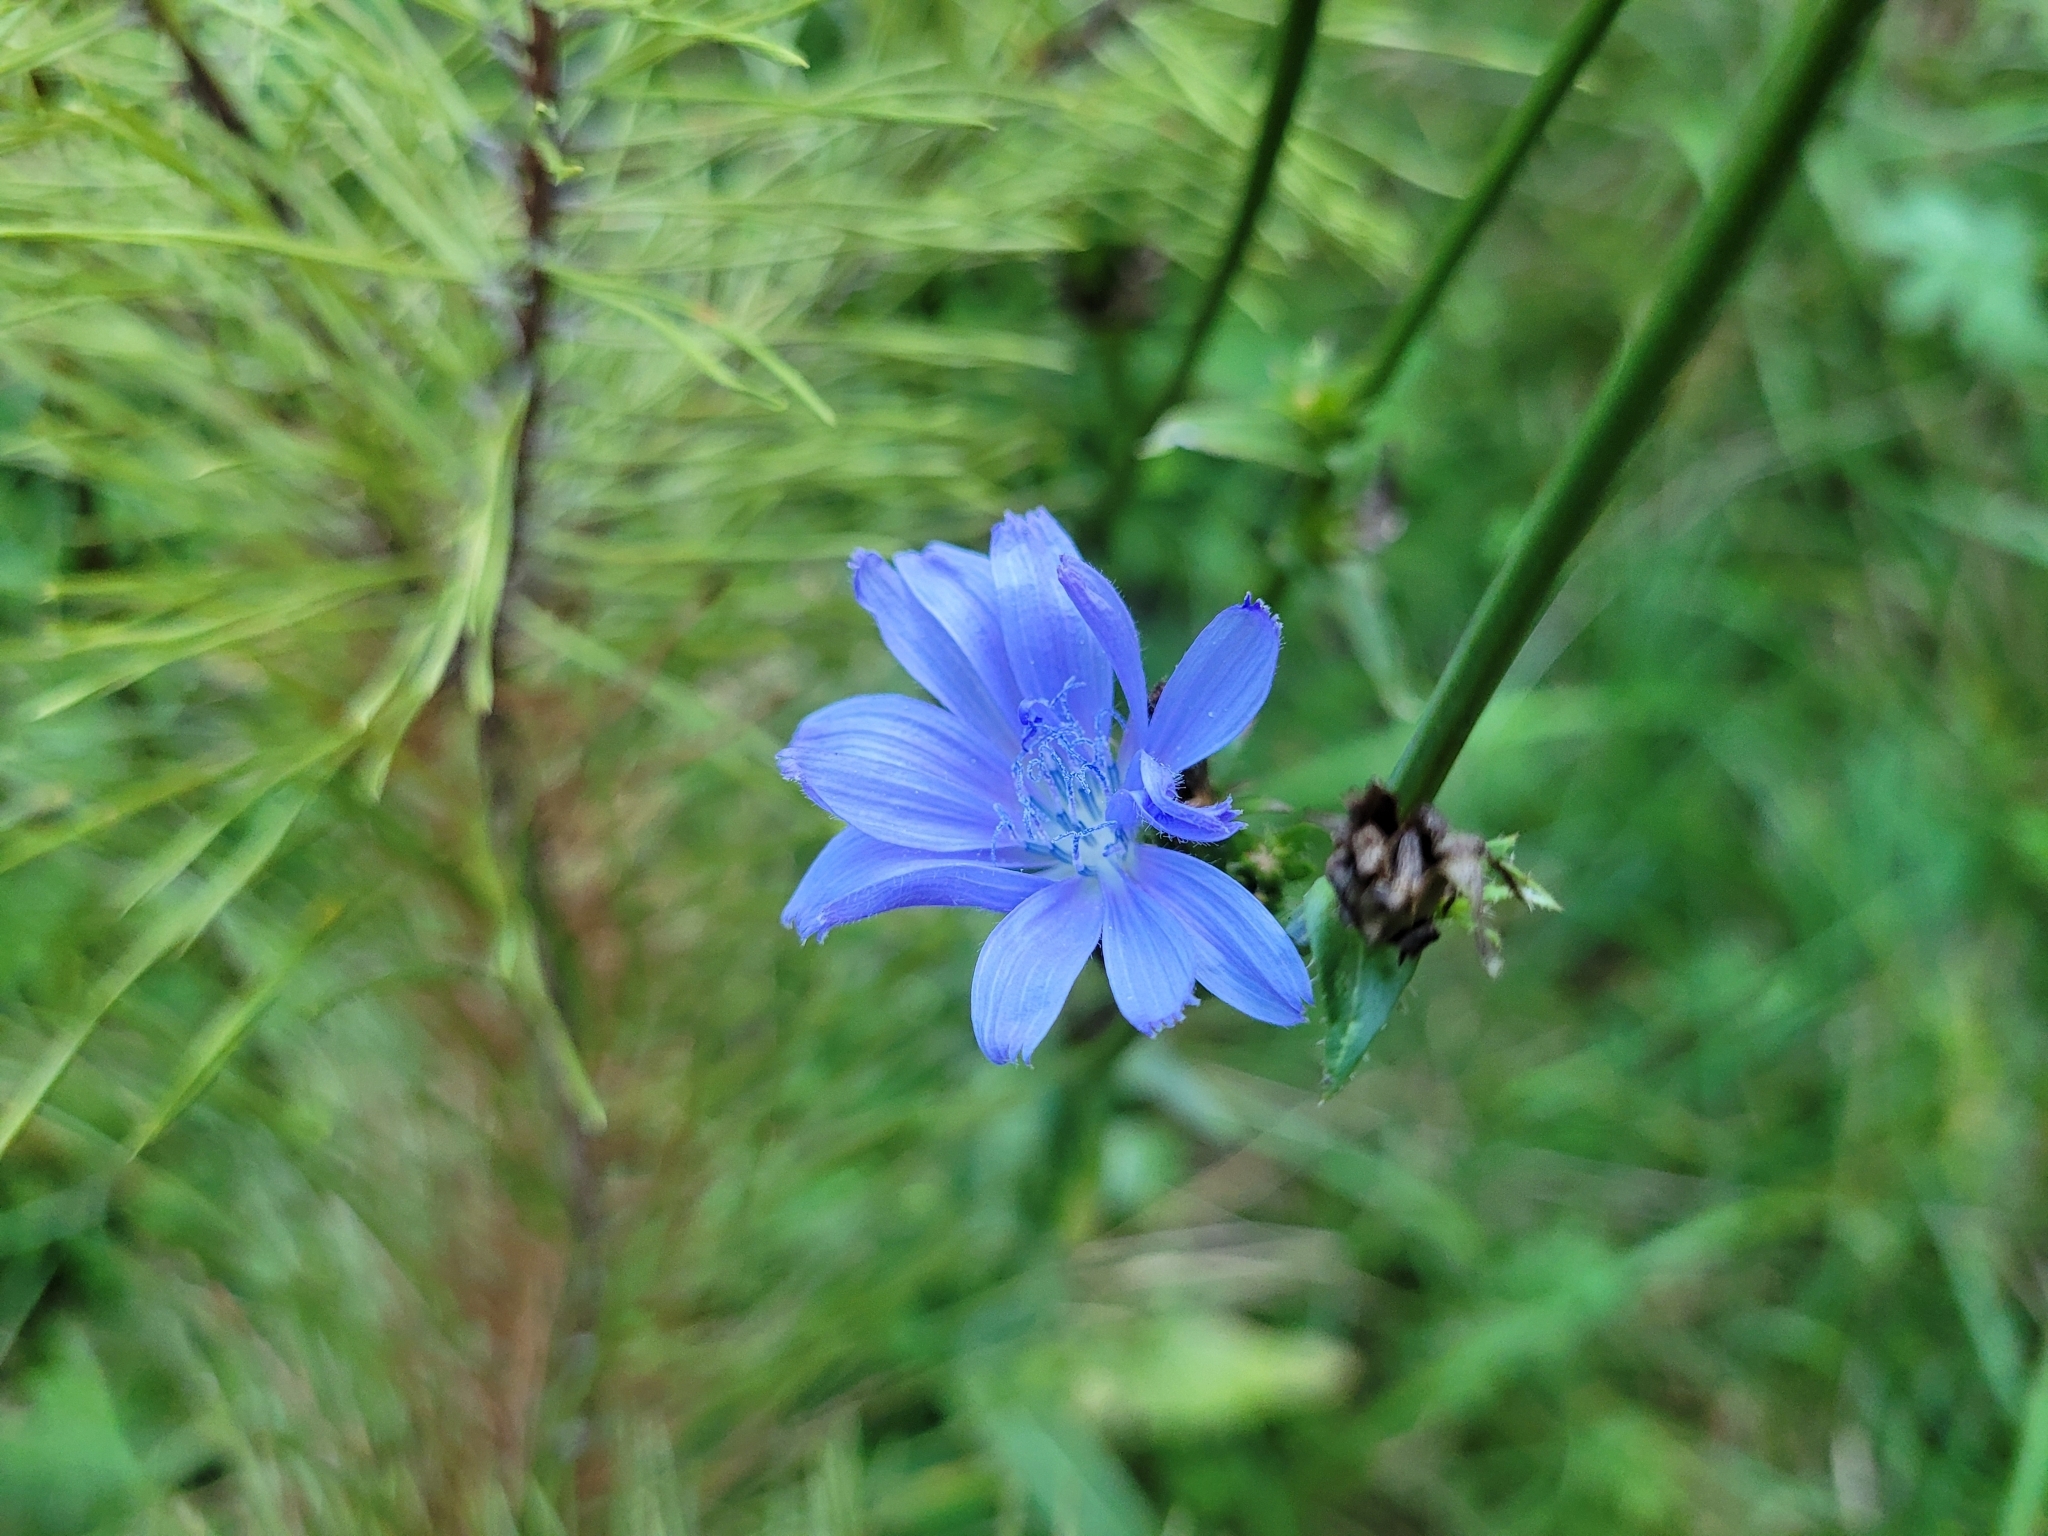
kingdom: Plantae
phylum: Tracheophyta
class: Magnoliopsida
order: Asterales
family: Asteraceae
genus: Cichorium
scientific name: Cichorium intybus
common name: Chicory
